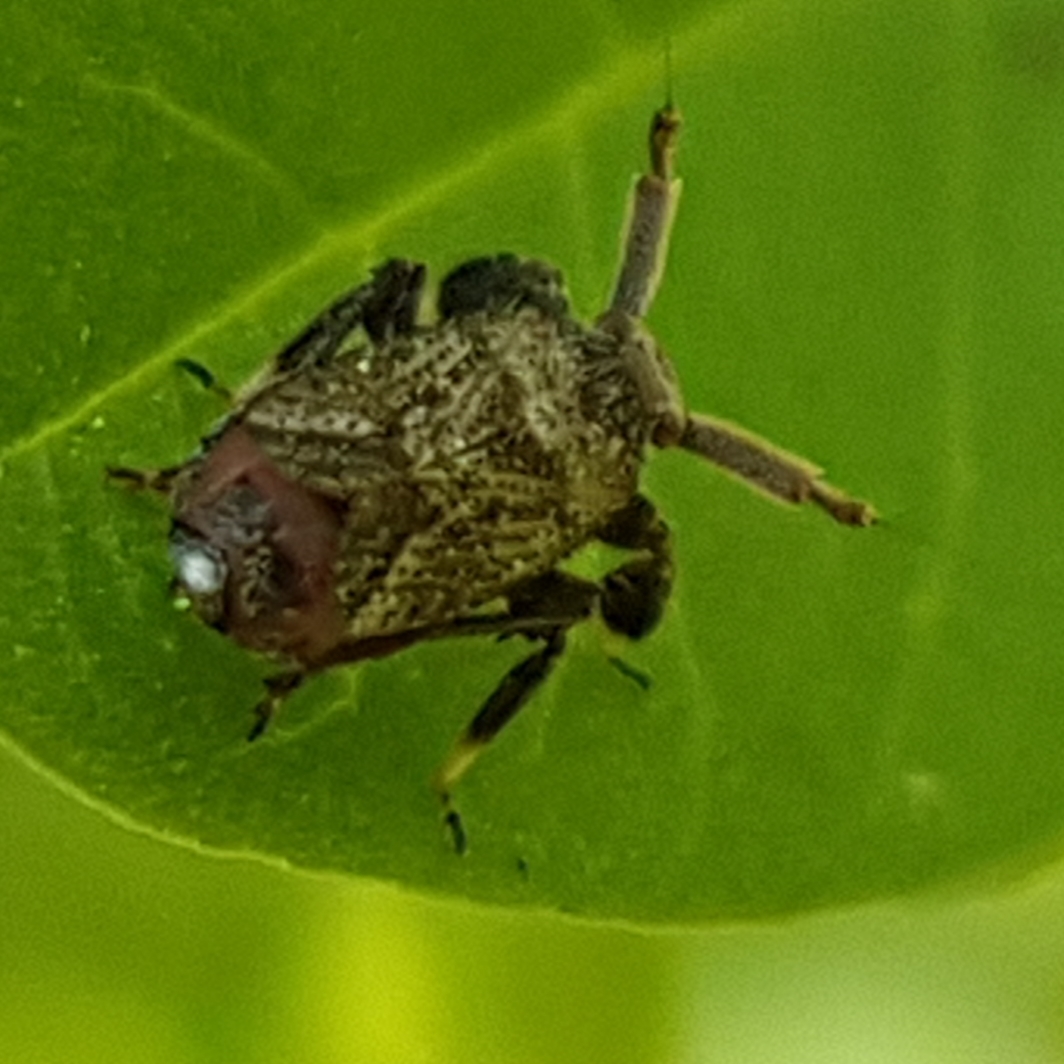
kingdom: Animalia
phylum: Arthropoda
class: Insecta
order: Hemiptera
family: Delphacidae
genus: Asiraca
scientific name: Asiraca clavicornis
